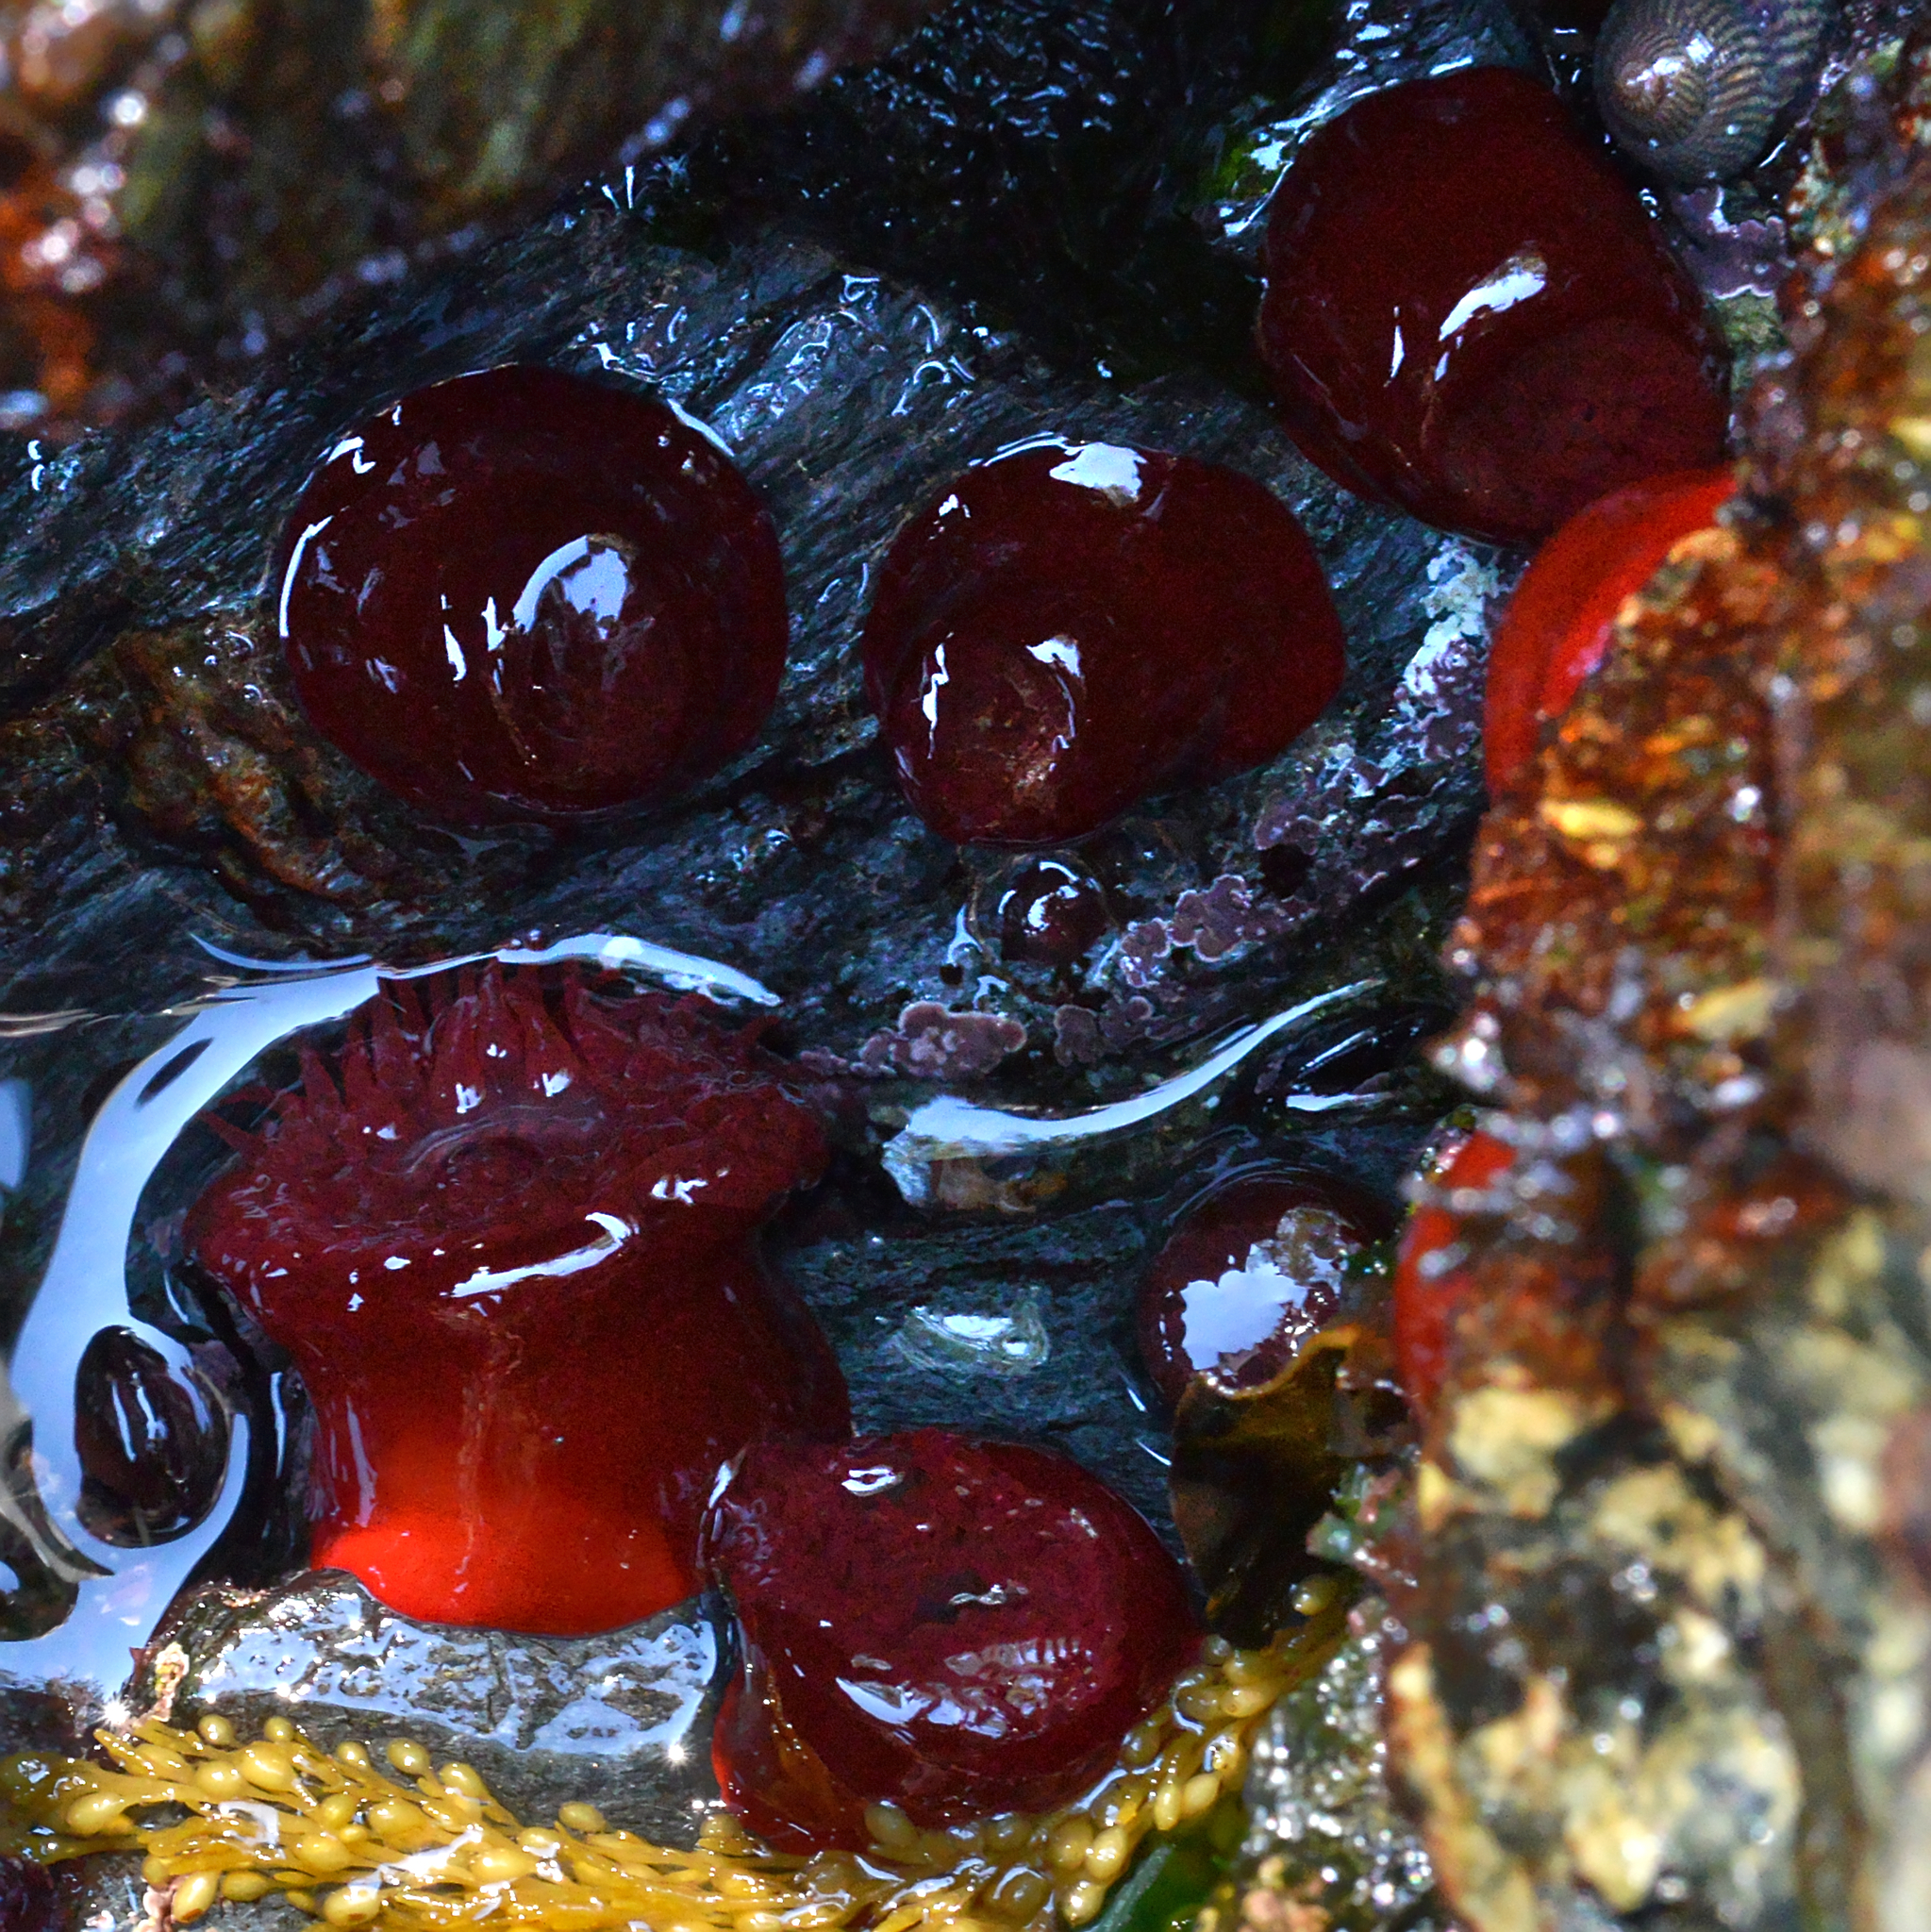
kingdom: Animalia
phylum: Cnidaria
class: Anthozoa
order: Actiniaria
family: Actiniidae
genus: Actinia
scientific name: Actinia equina
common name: Beadlet anemone
